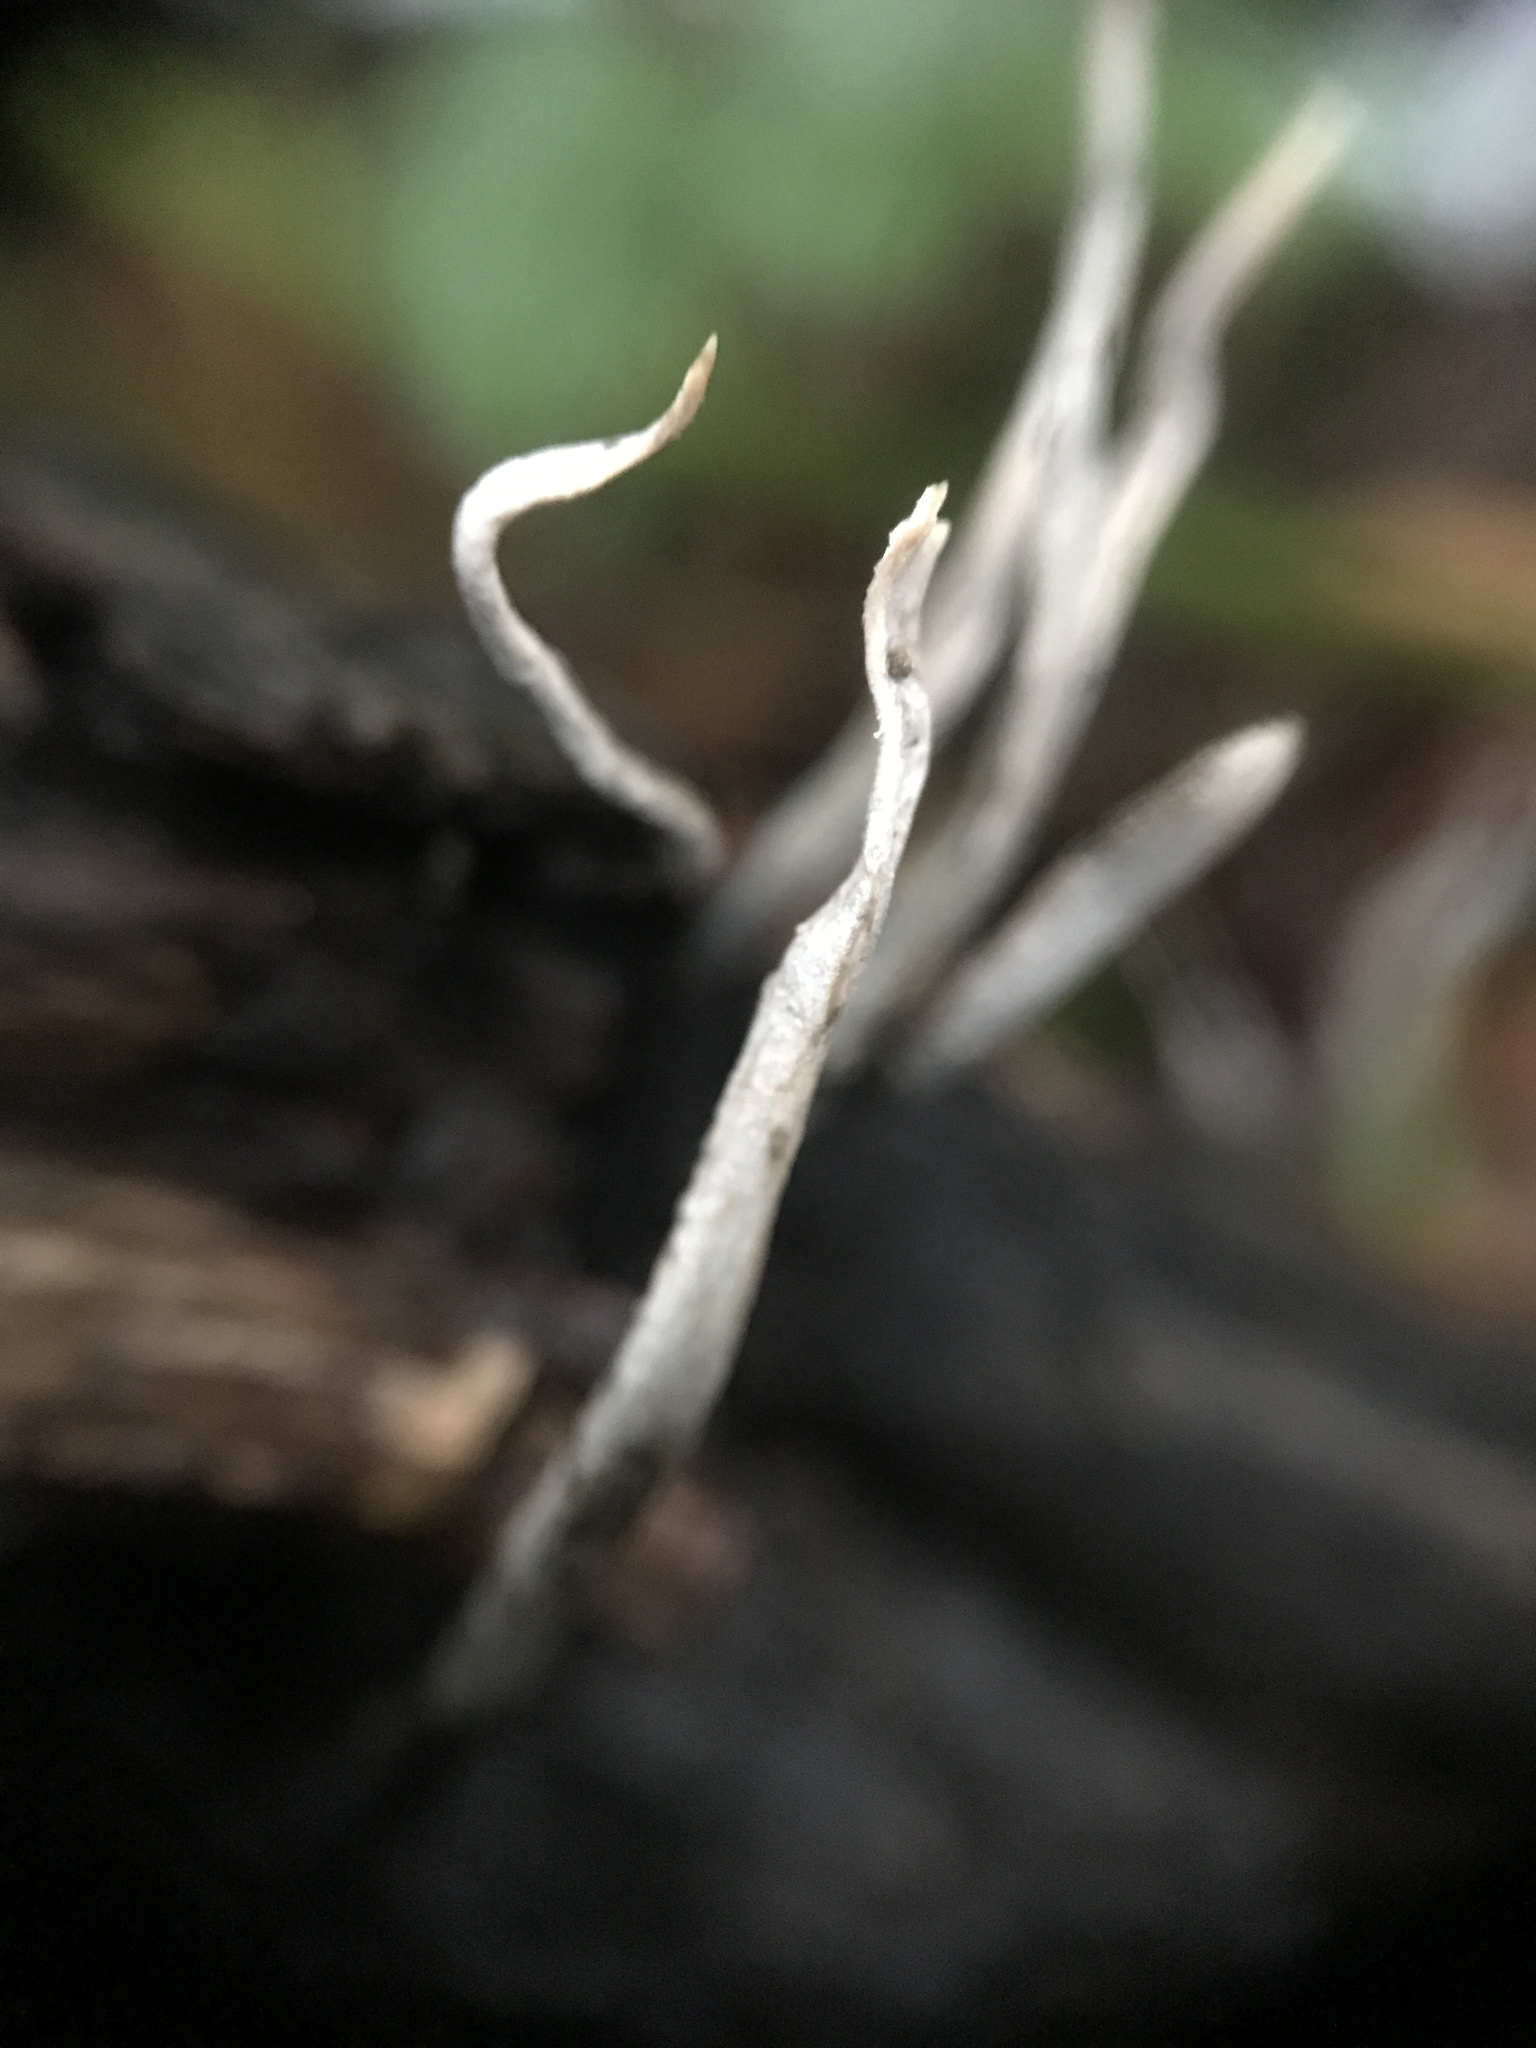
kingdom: Fungi
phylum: Ascomycota
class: Sordariomycetes
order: Xylariales
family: Xylariaceae
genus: Xylaria
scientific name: Xylaria hypoxylon
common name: Candle-snuff fungus
